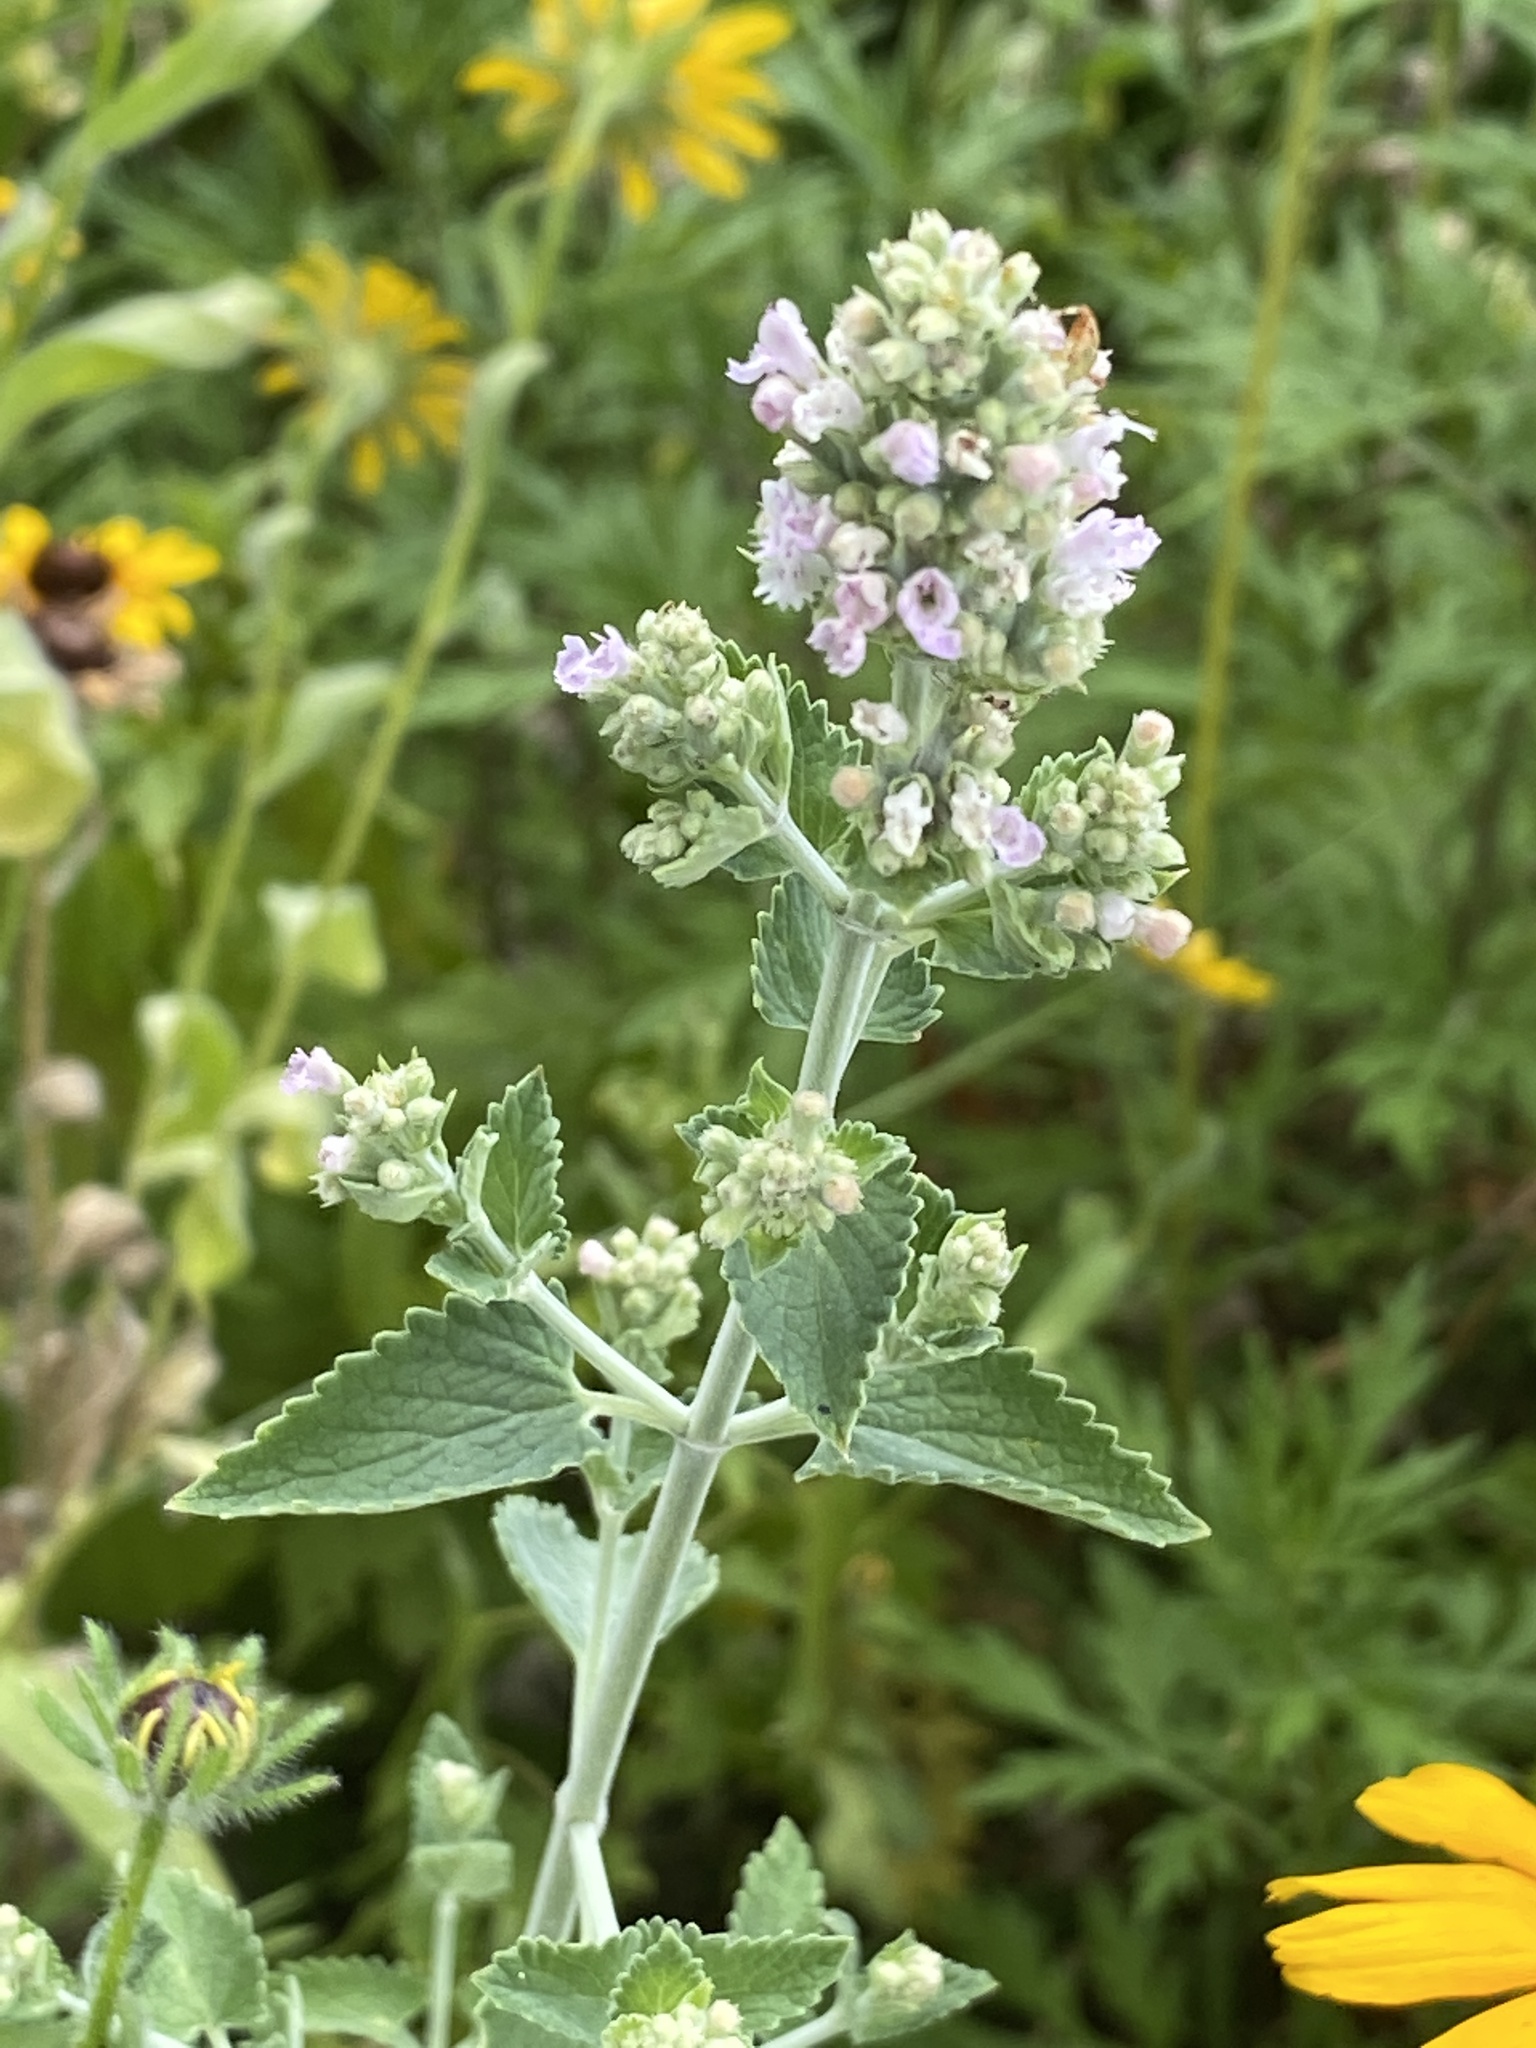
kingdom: Plantae
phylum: Tracheophyta
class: Magnoliopsida
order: Lamiales
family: Lamiaceae
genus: Nepeta
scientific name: Nepeta cataria
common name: Catnip
